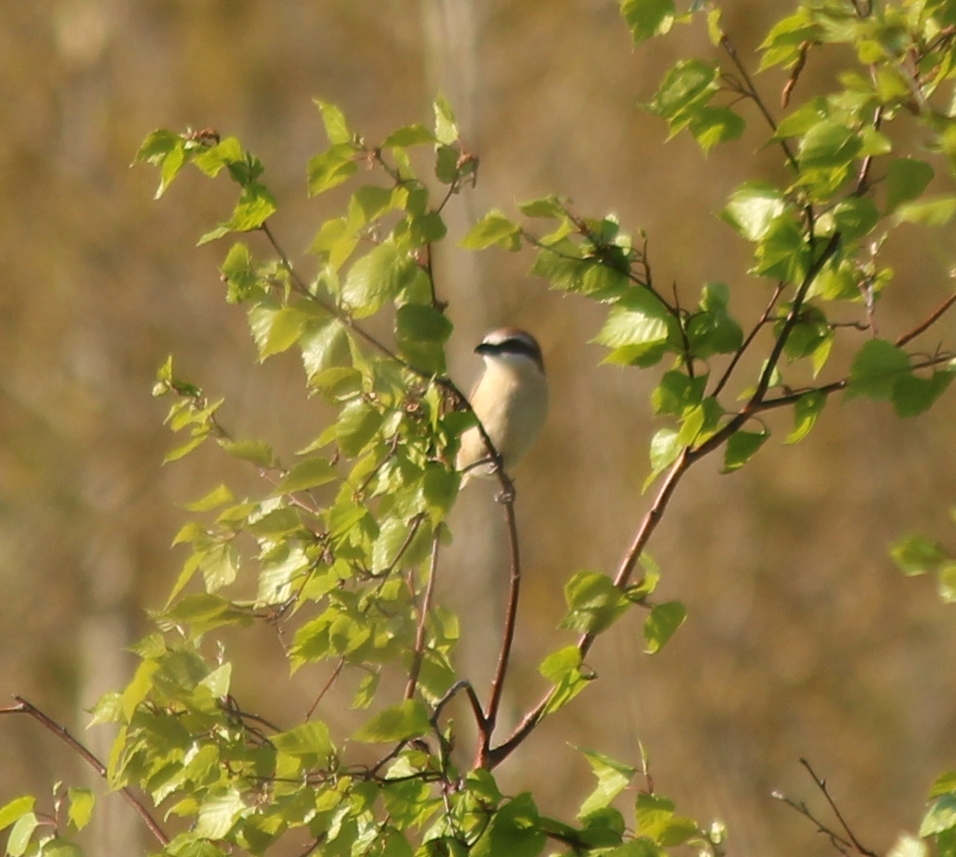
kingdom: Animalia
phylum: Chordata
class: Aves
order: Passeriformes
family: Laniidae
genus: Lanius
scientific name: Lanius cristatus
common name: Brown shrike
